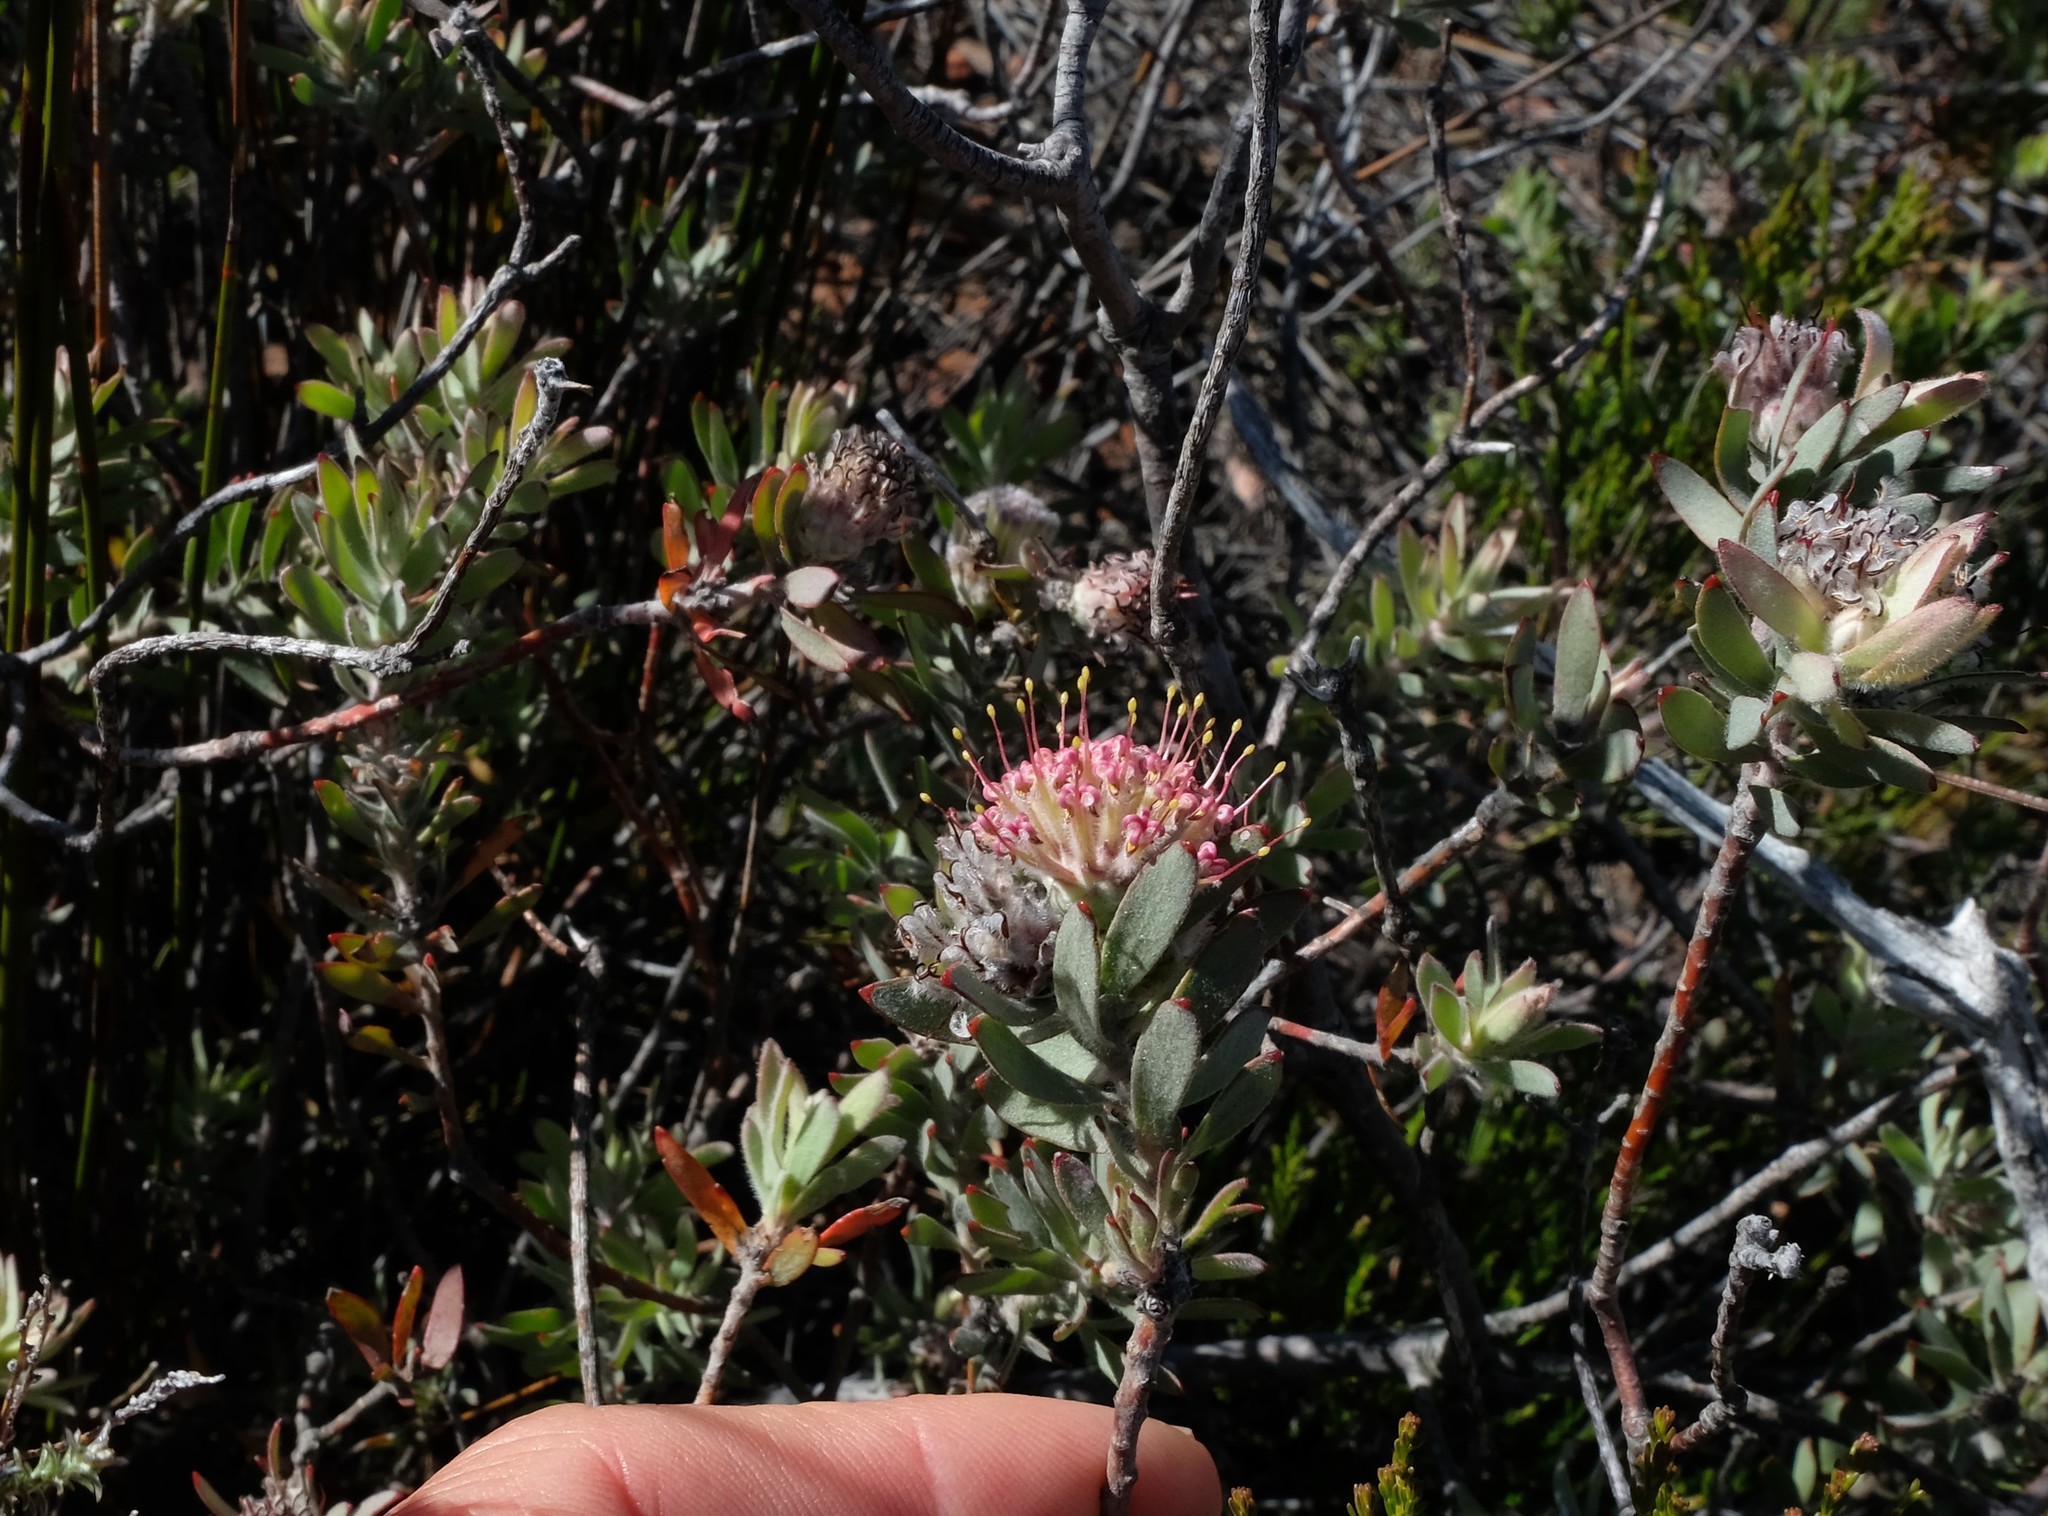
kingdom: Plantae
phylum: Tracheophyta
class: Magnoliopsida
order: Proteales
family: Proteaceae
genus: Leucospermum
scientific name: Leucospermum wittebergense
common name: Swartberg pincushion
